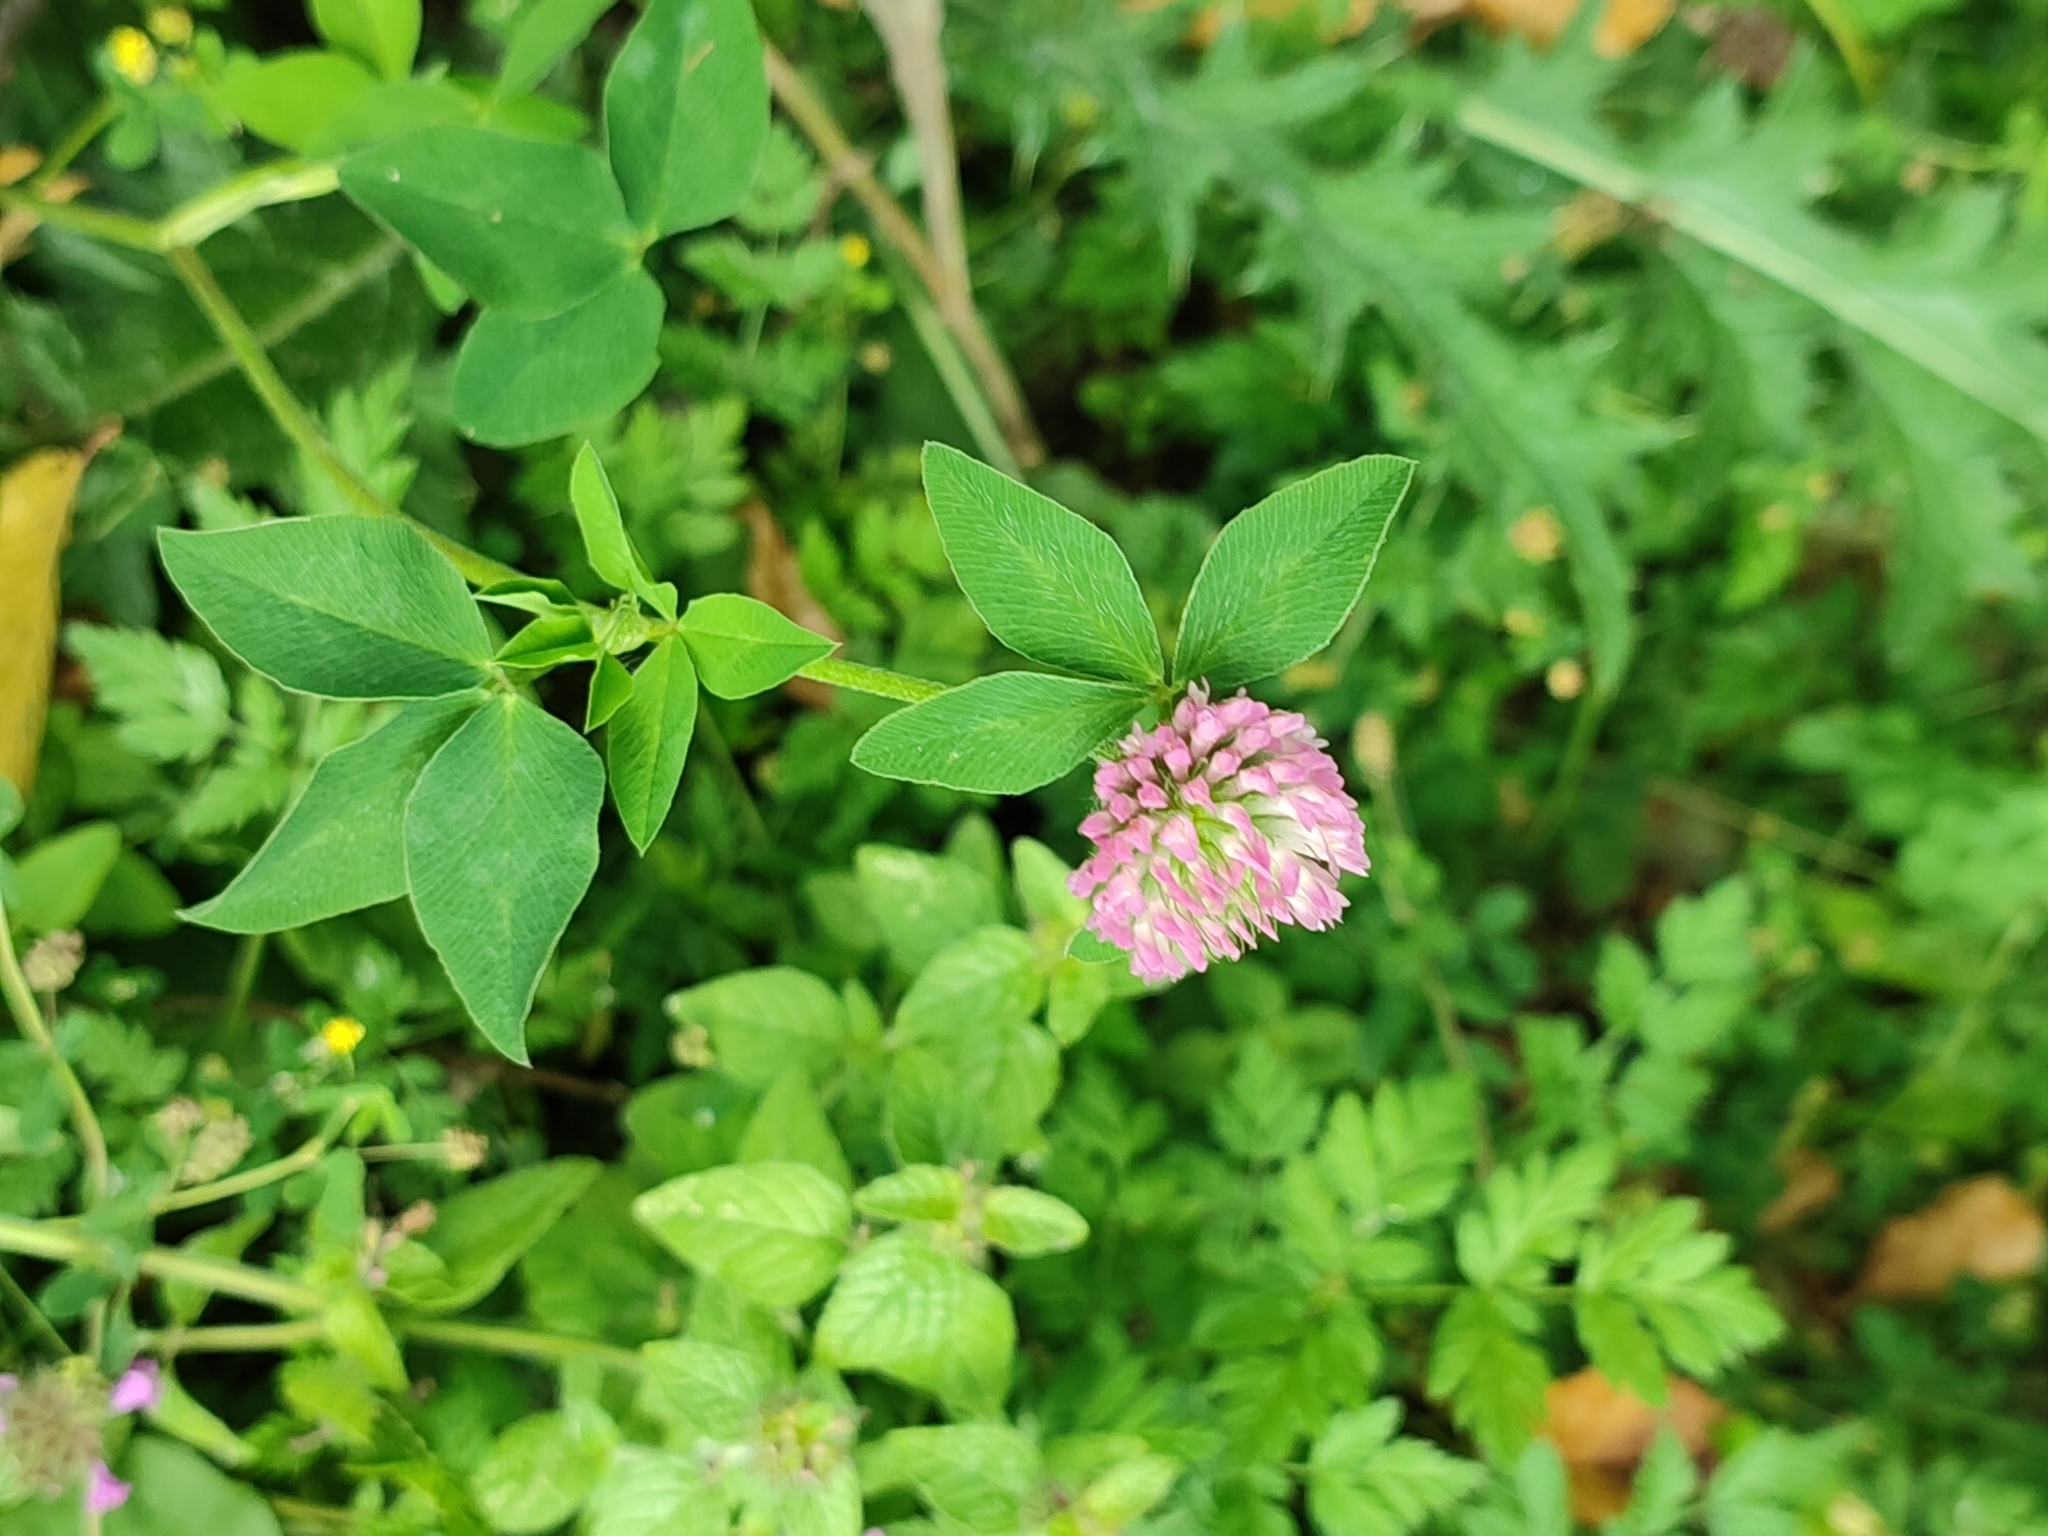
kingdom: Plantae
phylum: Tracheophyta
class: Magnoliopsida
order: Fabales
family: Fabaceae
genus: Trifolium
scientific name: Trifolium pratense
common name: Red clover
